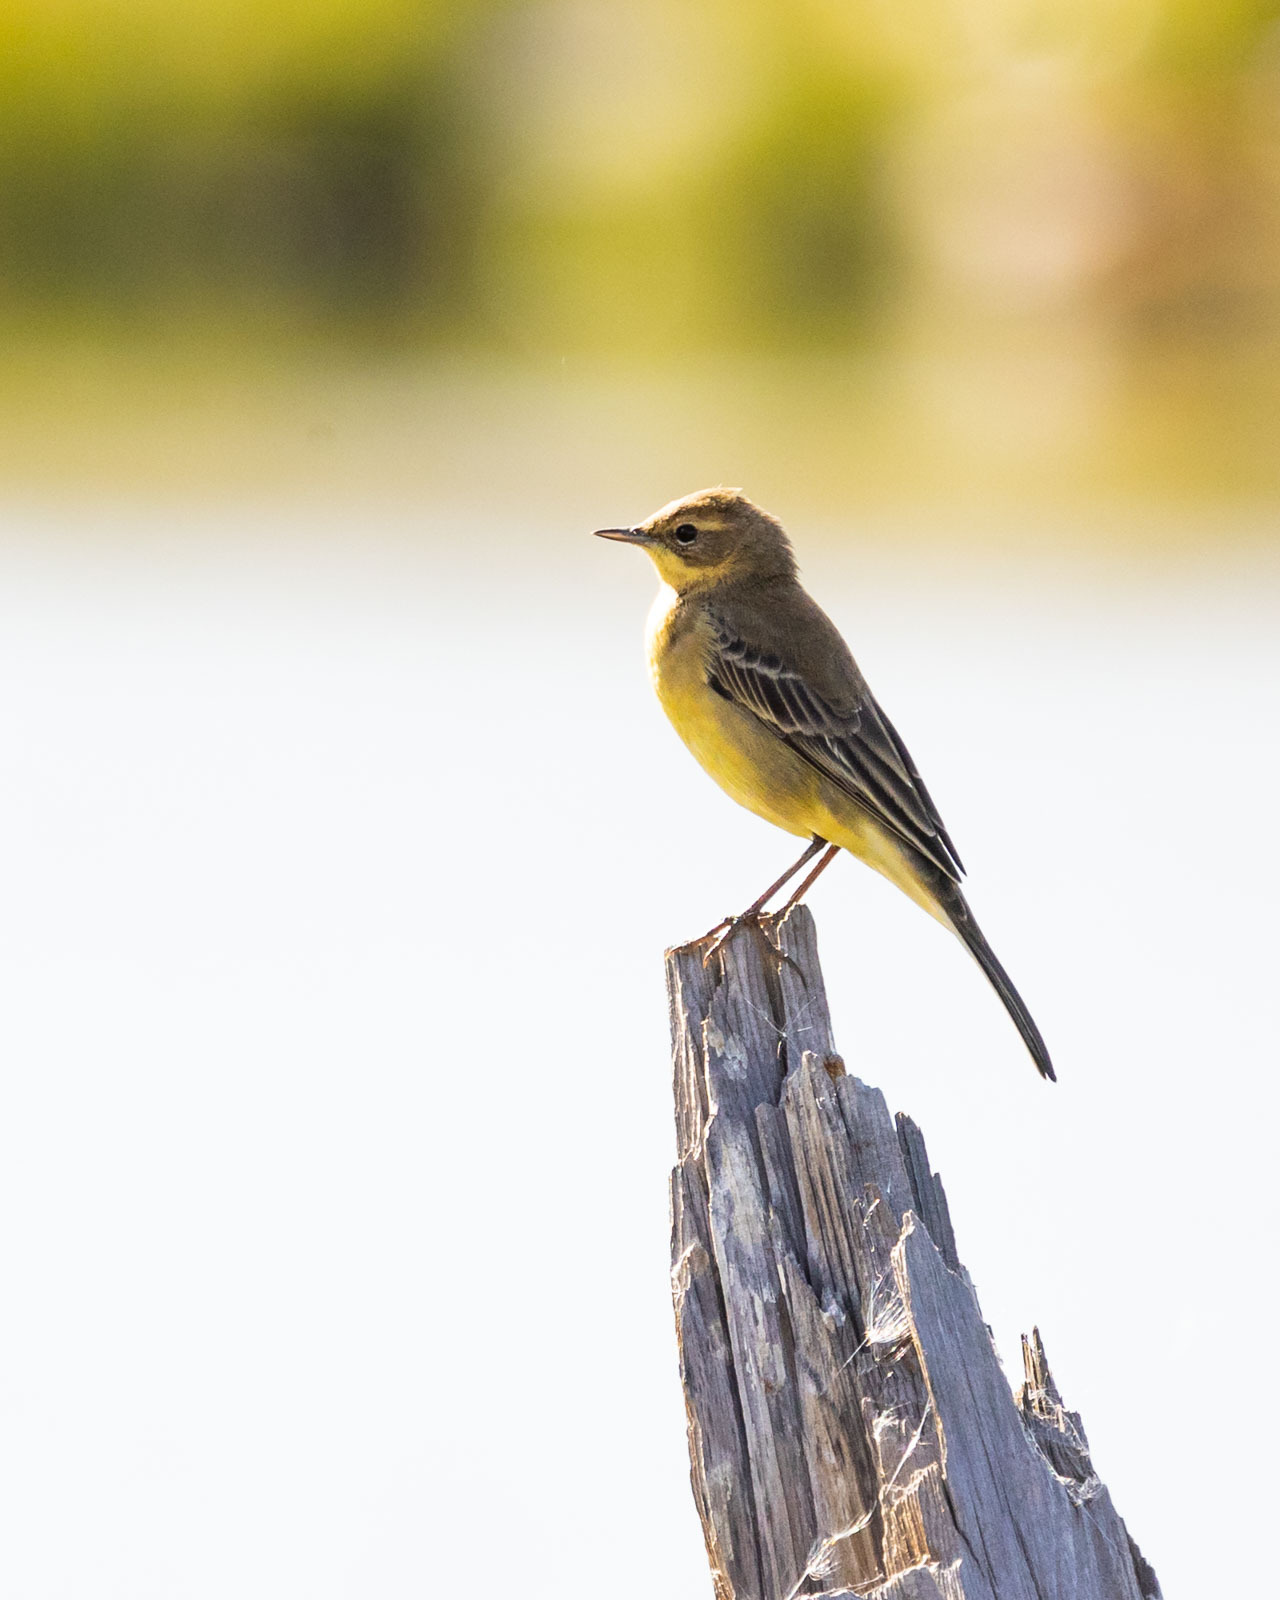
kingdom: Animalia
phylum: Chordata
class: Aves
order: Passeriformes
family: Motacillidae
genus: Motacilla
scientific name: Motacilla tschutschensis
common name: Eastern yellow wagtail
